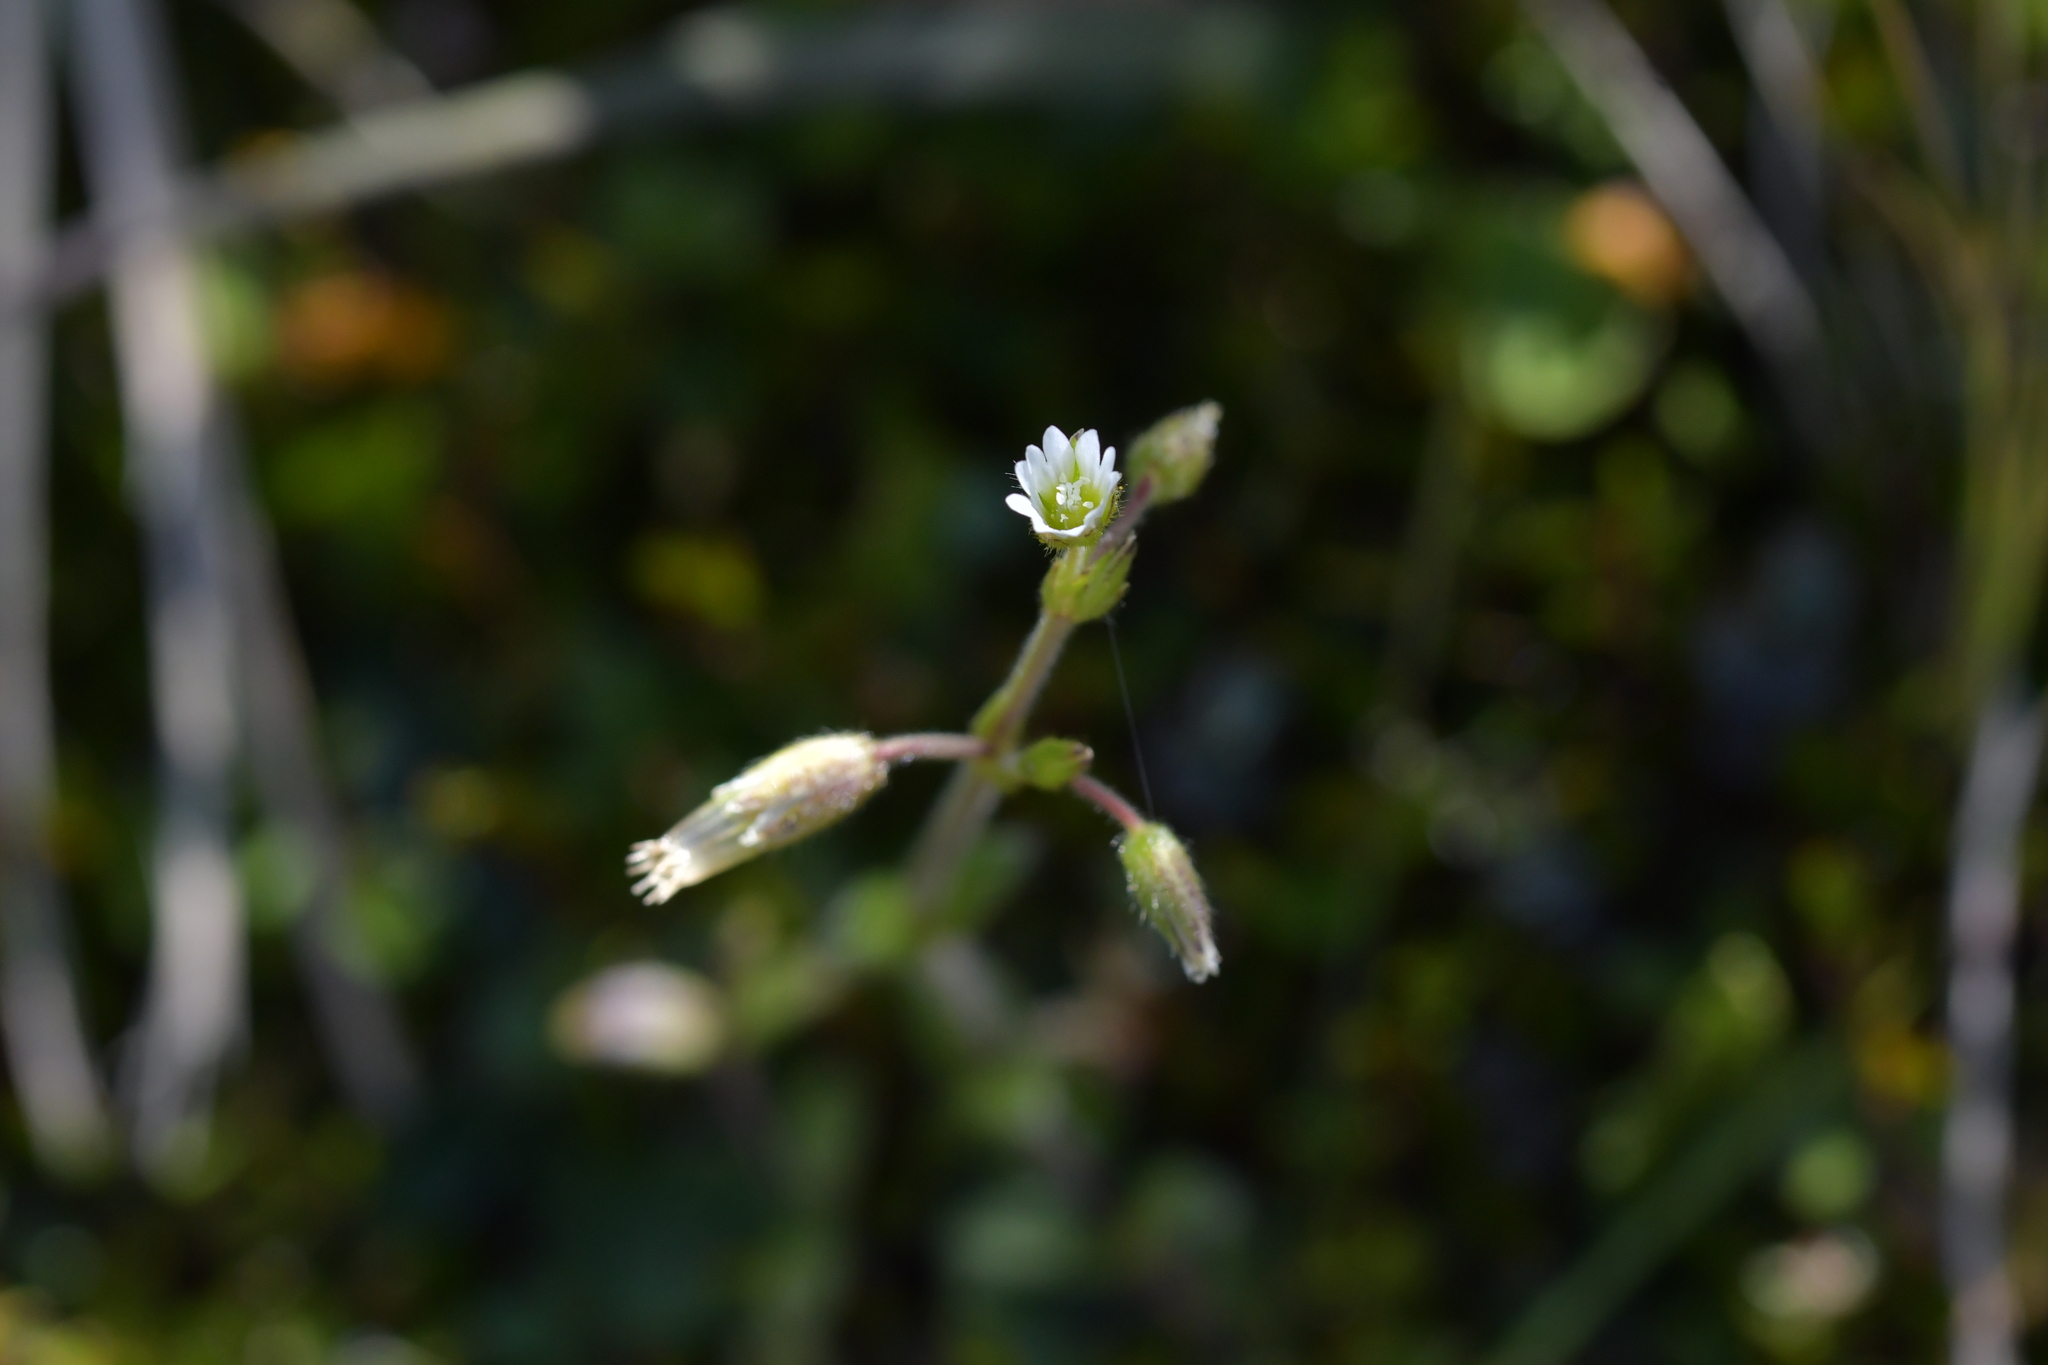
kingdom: Plantae
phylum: Tracheophyta
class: Magnoliopsida
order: Caryophyllales
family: Caryophyllaceae
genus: Cerastium
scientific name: Cerastium fontanum
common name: Common mouse-ear
